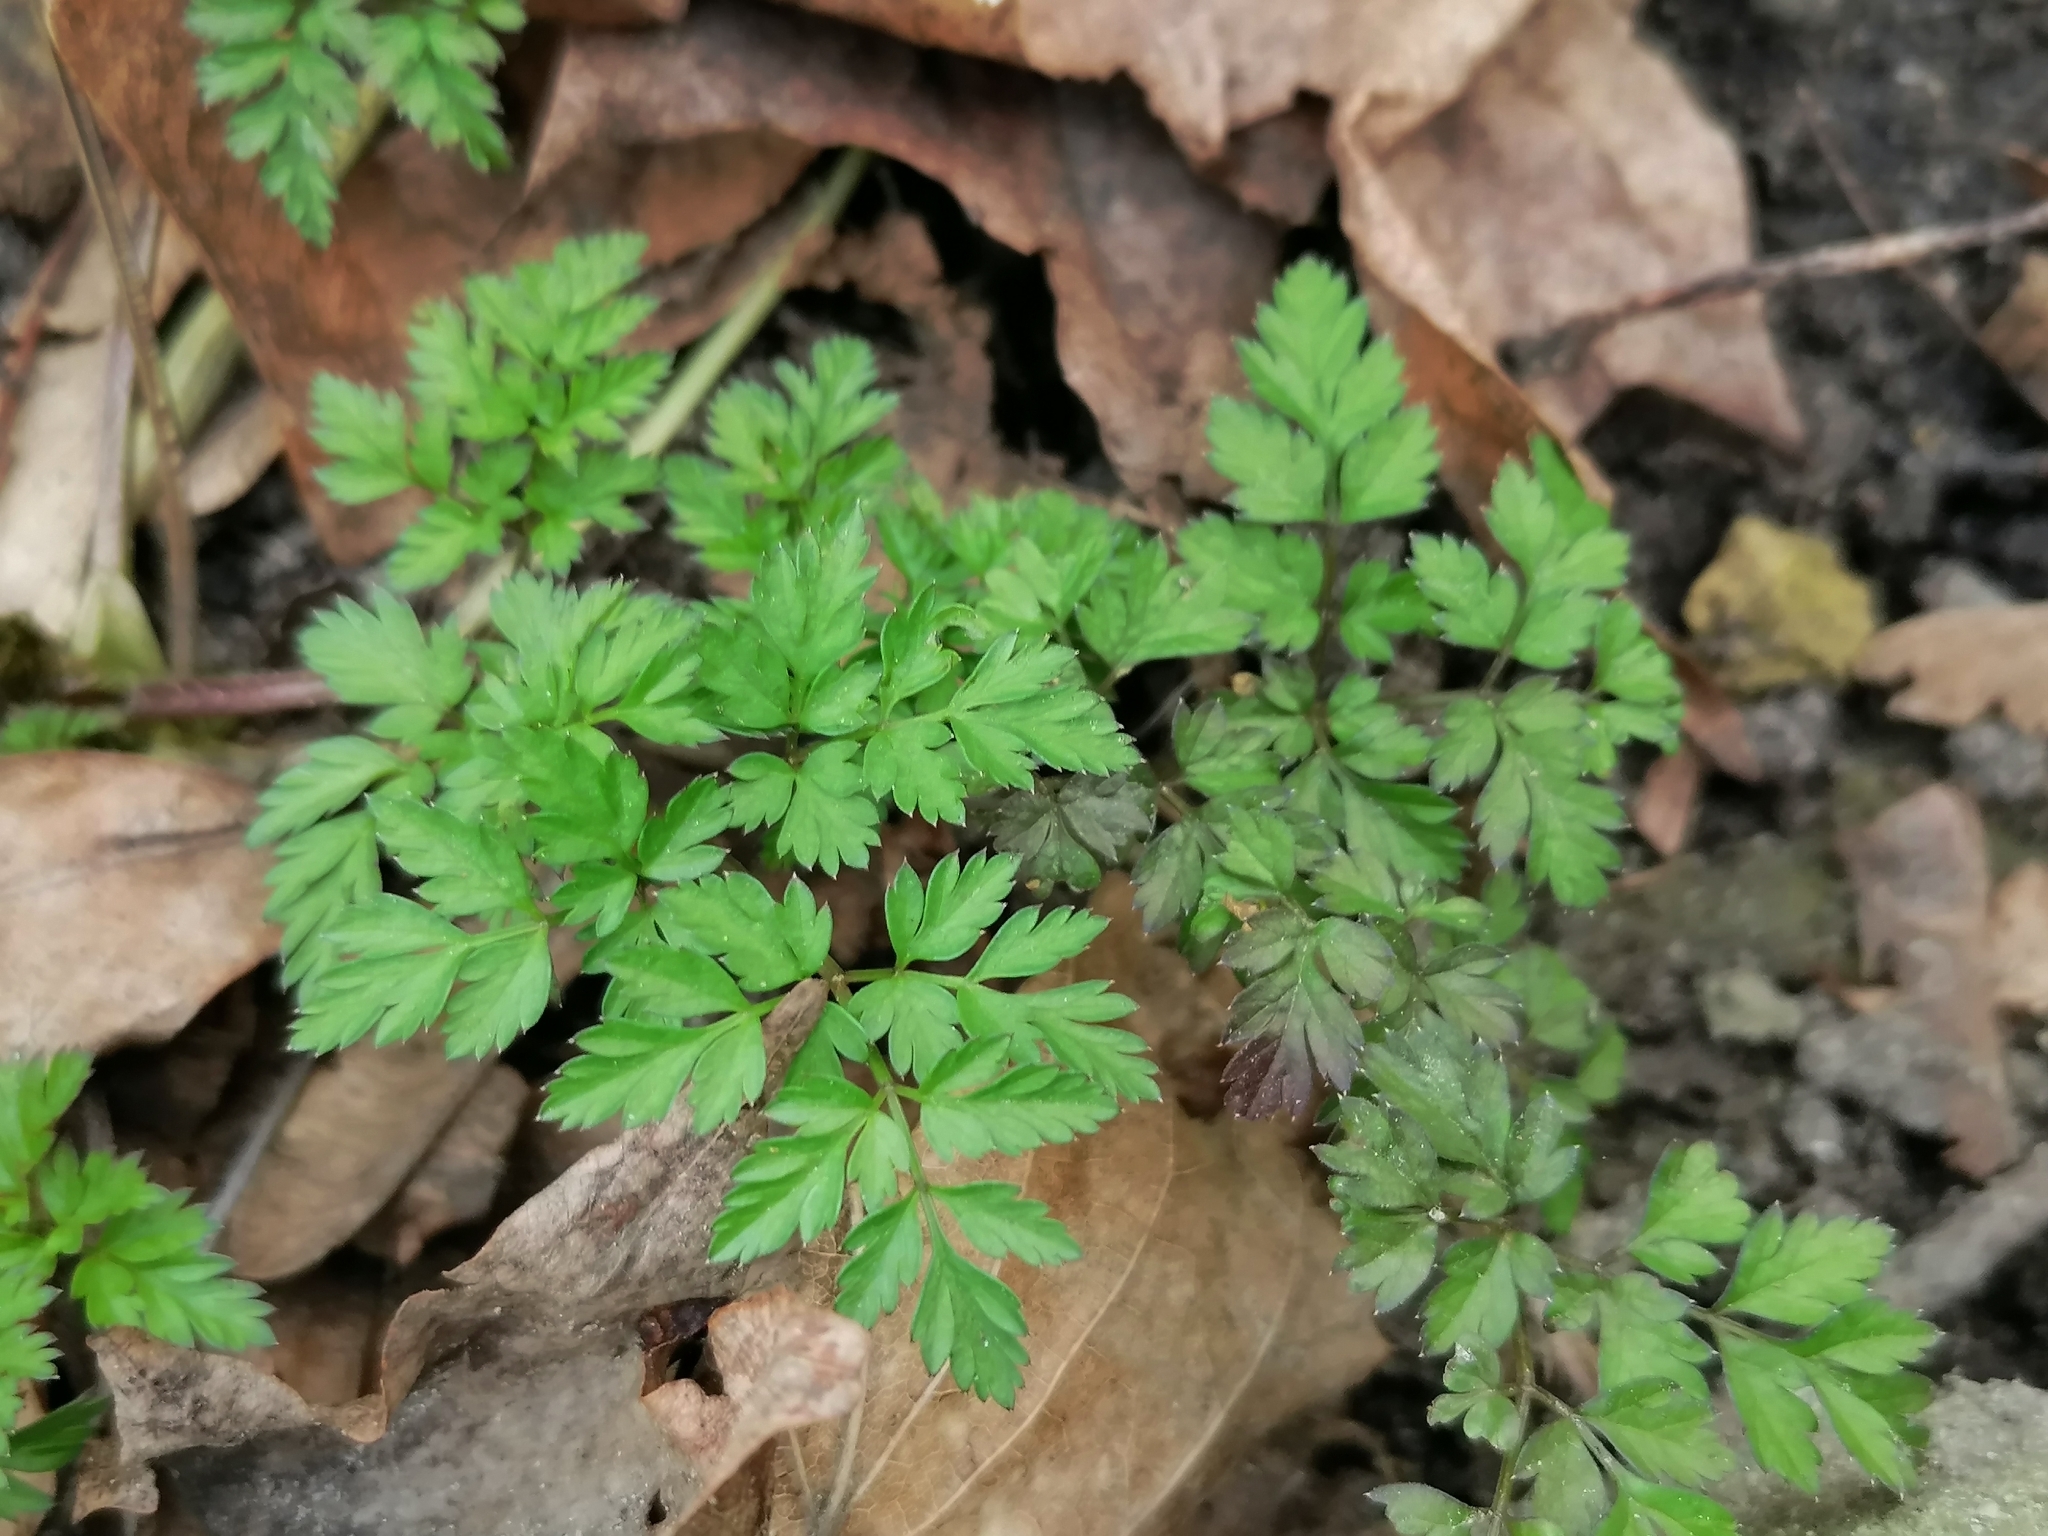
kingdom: Plantae
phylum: Tracheophyta
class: Magnoliopsida
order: Apiales
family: Apiaceae
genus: Anthriscus
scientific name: Anthriscus sylvestris
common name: Cow parsley
